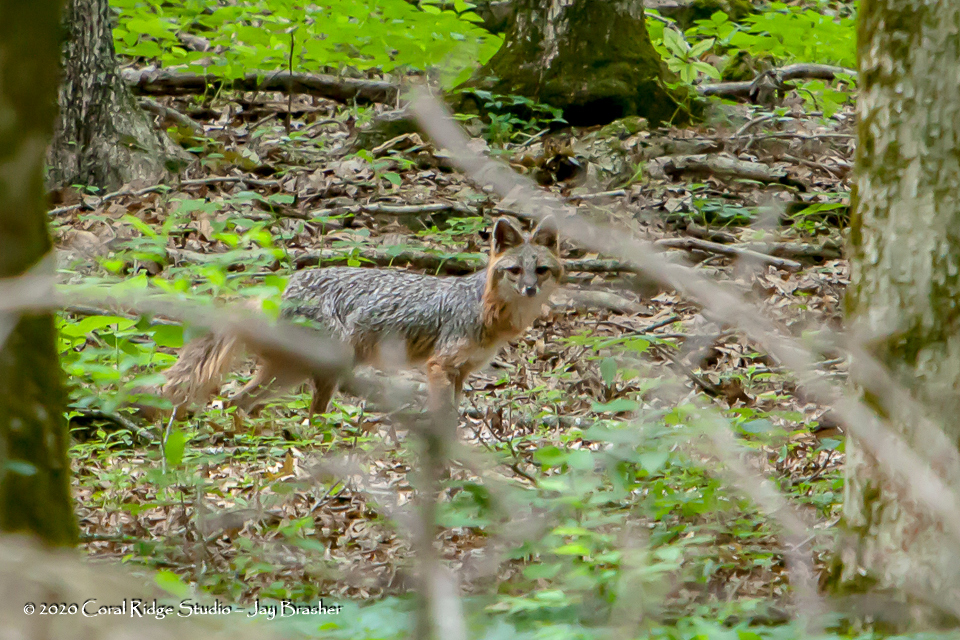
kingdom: Animalia
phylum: Chordata
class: Mammalia
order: Carnivora
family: Canidae
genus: Urocyon
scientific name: Urocyon cinereoargenteus
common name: Gray fox
